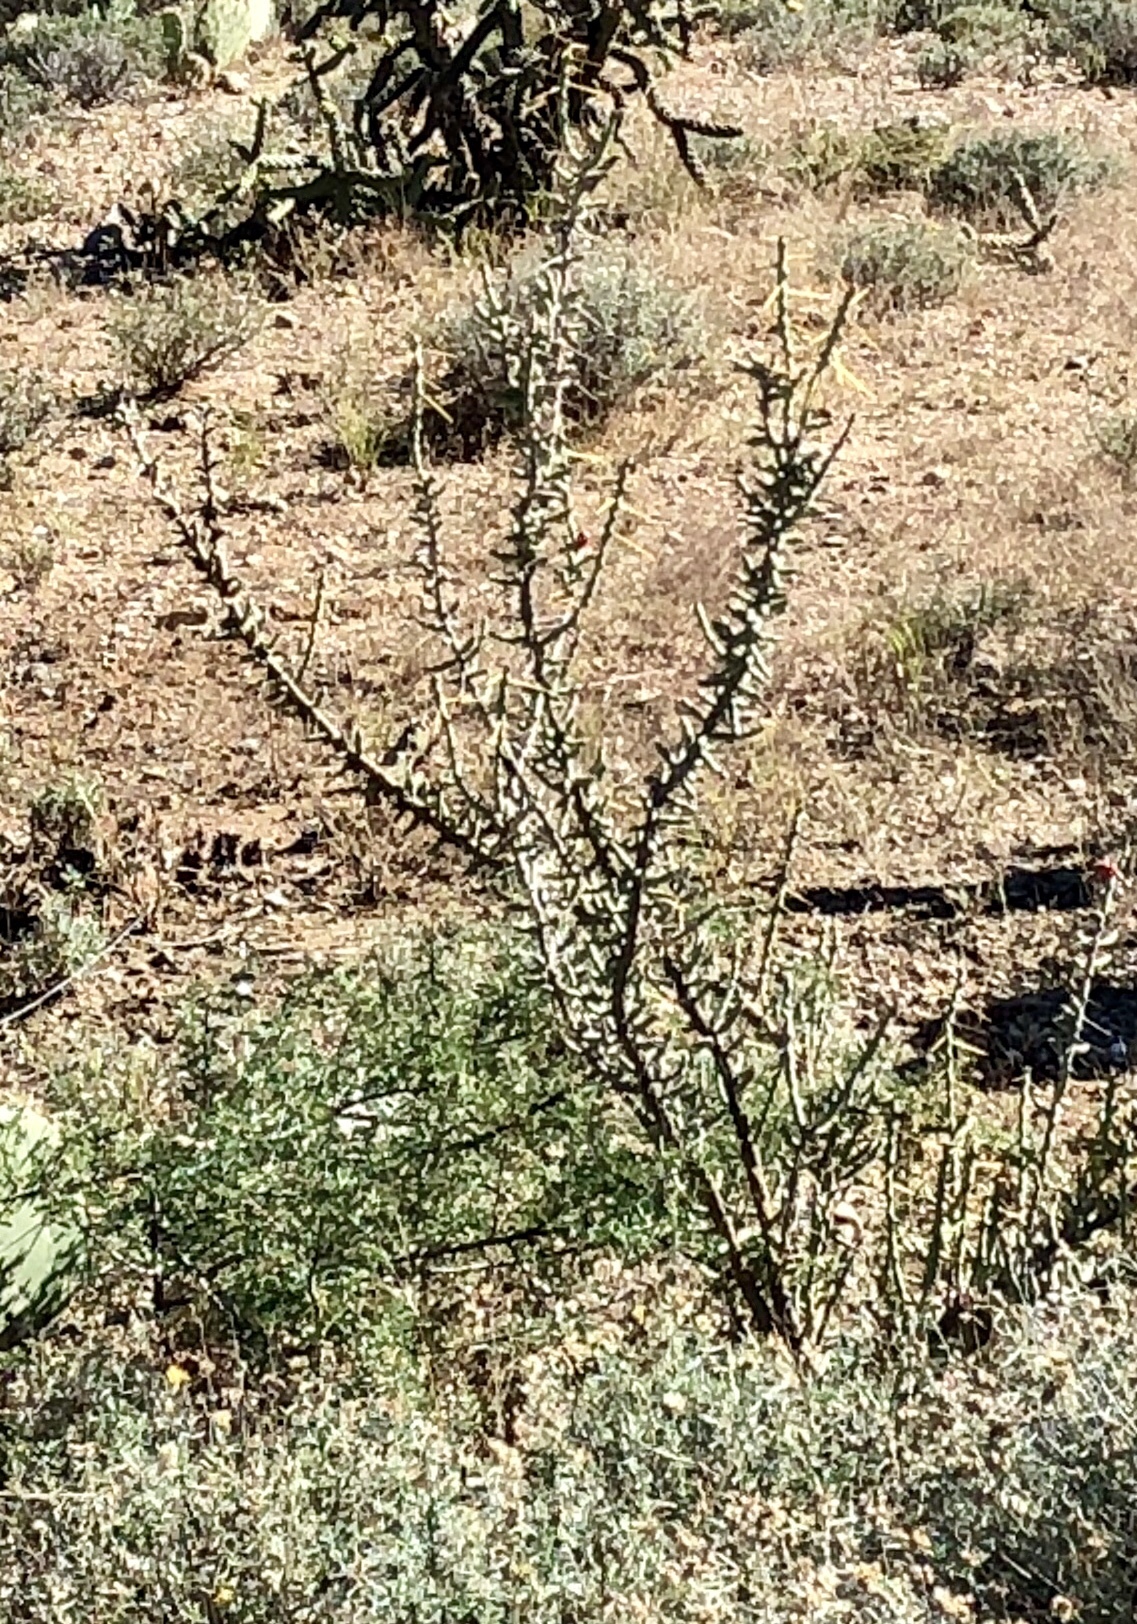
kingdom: Plantae
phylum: Tracheophyta
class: Magnoliopsida
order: Caryophyllales
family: Cactaceae
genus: Cylindropuntia
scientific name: Cylindropuntia leptocaulis
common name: Christmas cactus
